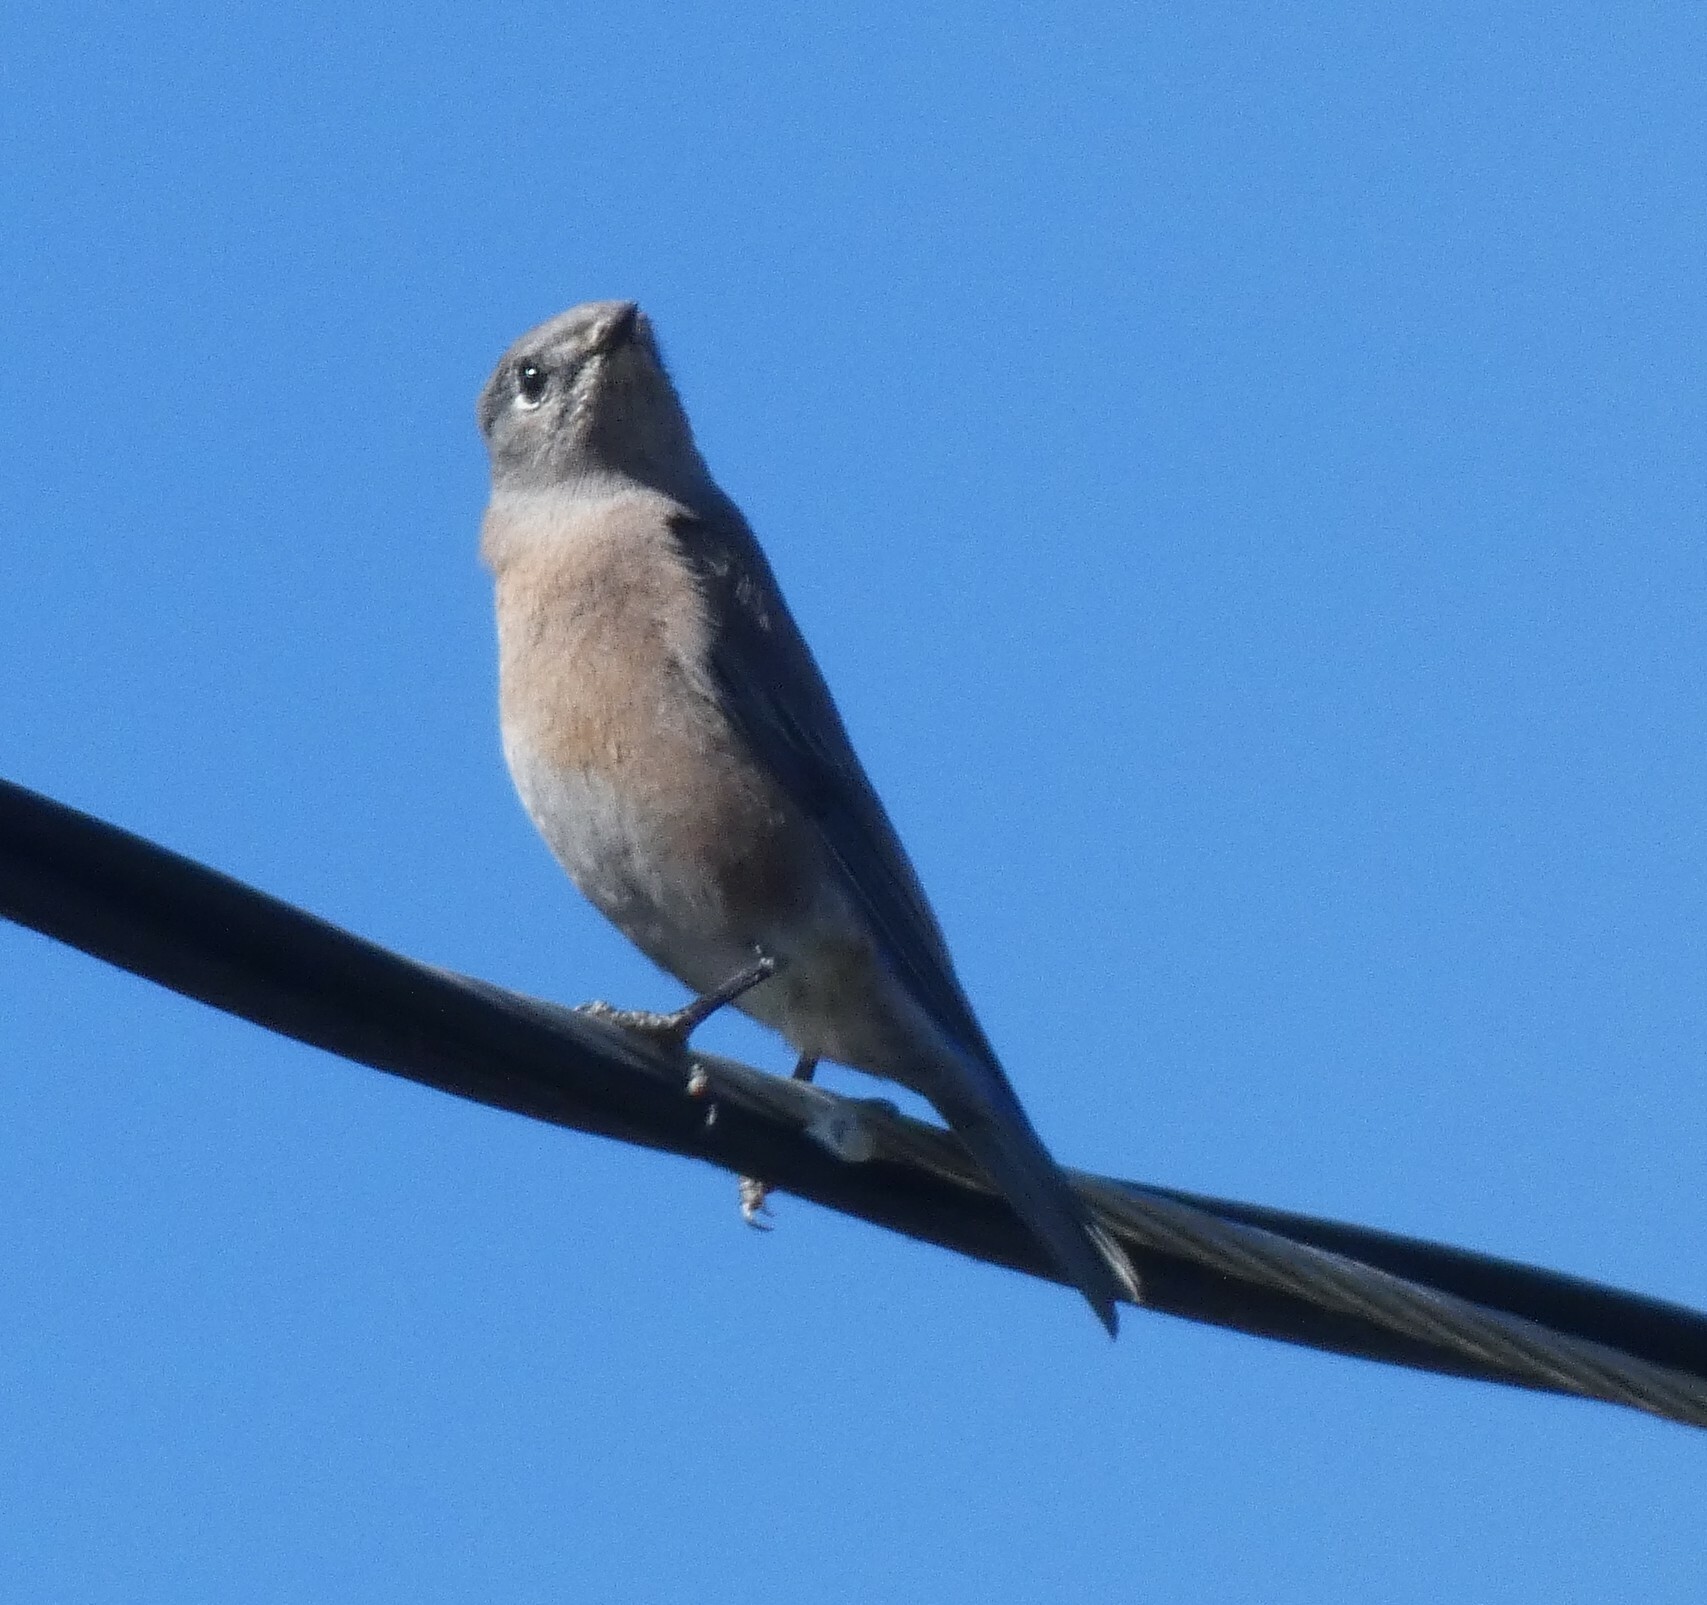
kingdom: Animalia
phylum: Chordata
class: Aves
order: Passeriformes
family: Turdidae
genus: Sialia
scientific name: Sialia mexicana
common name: Western bluebird
